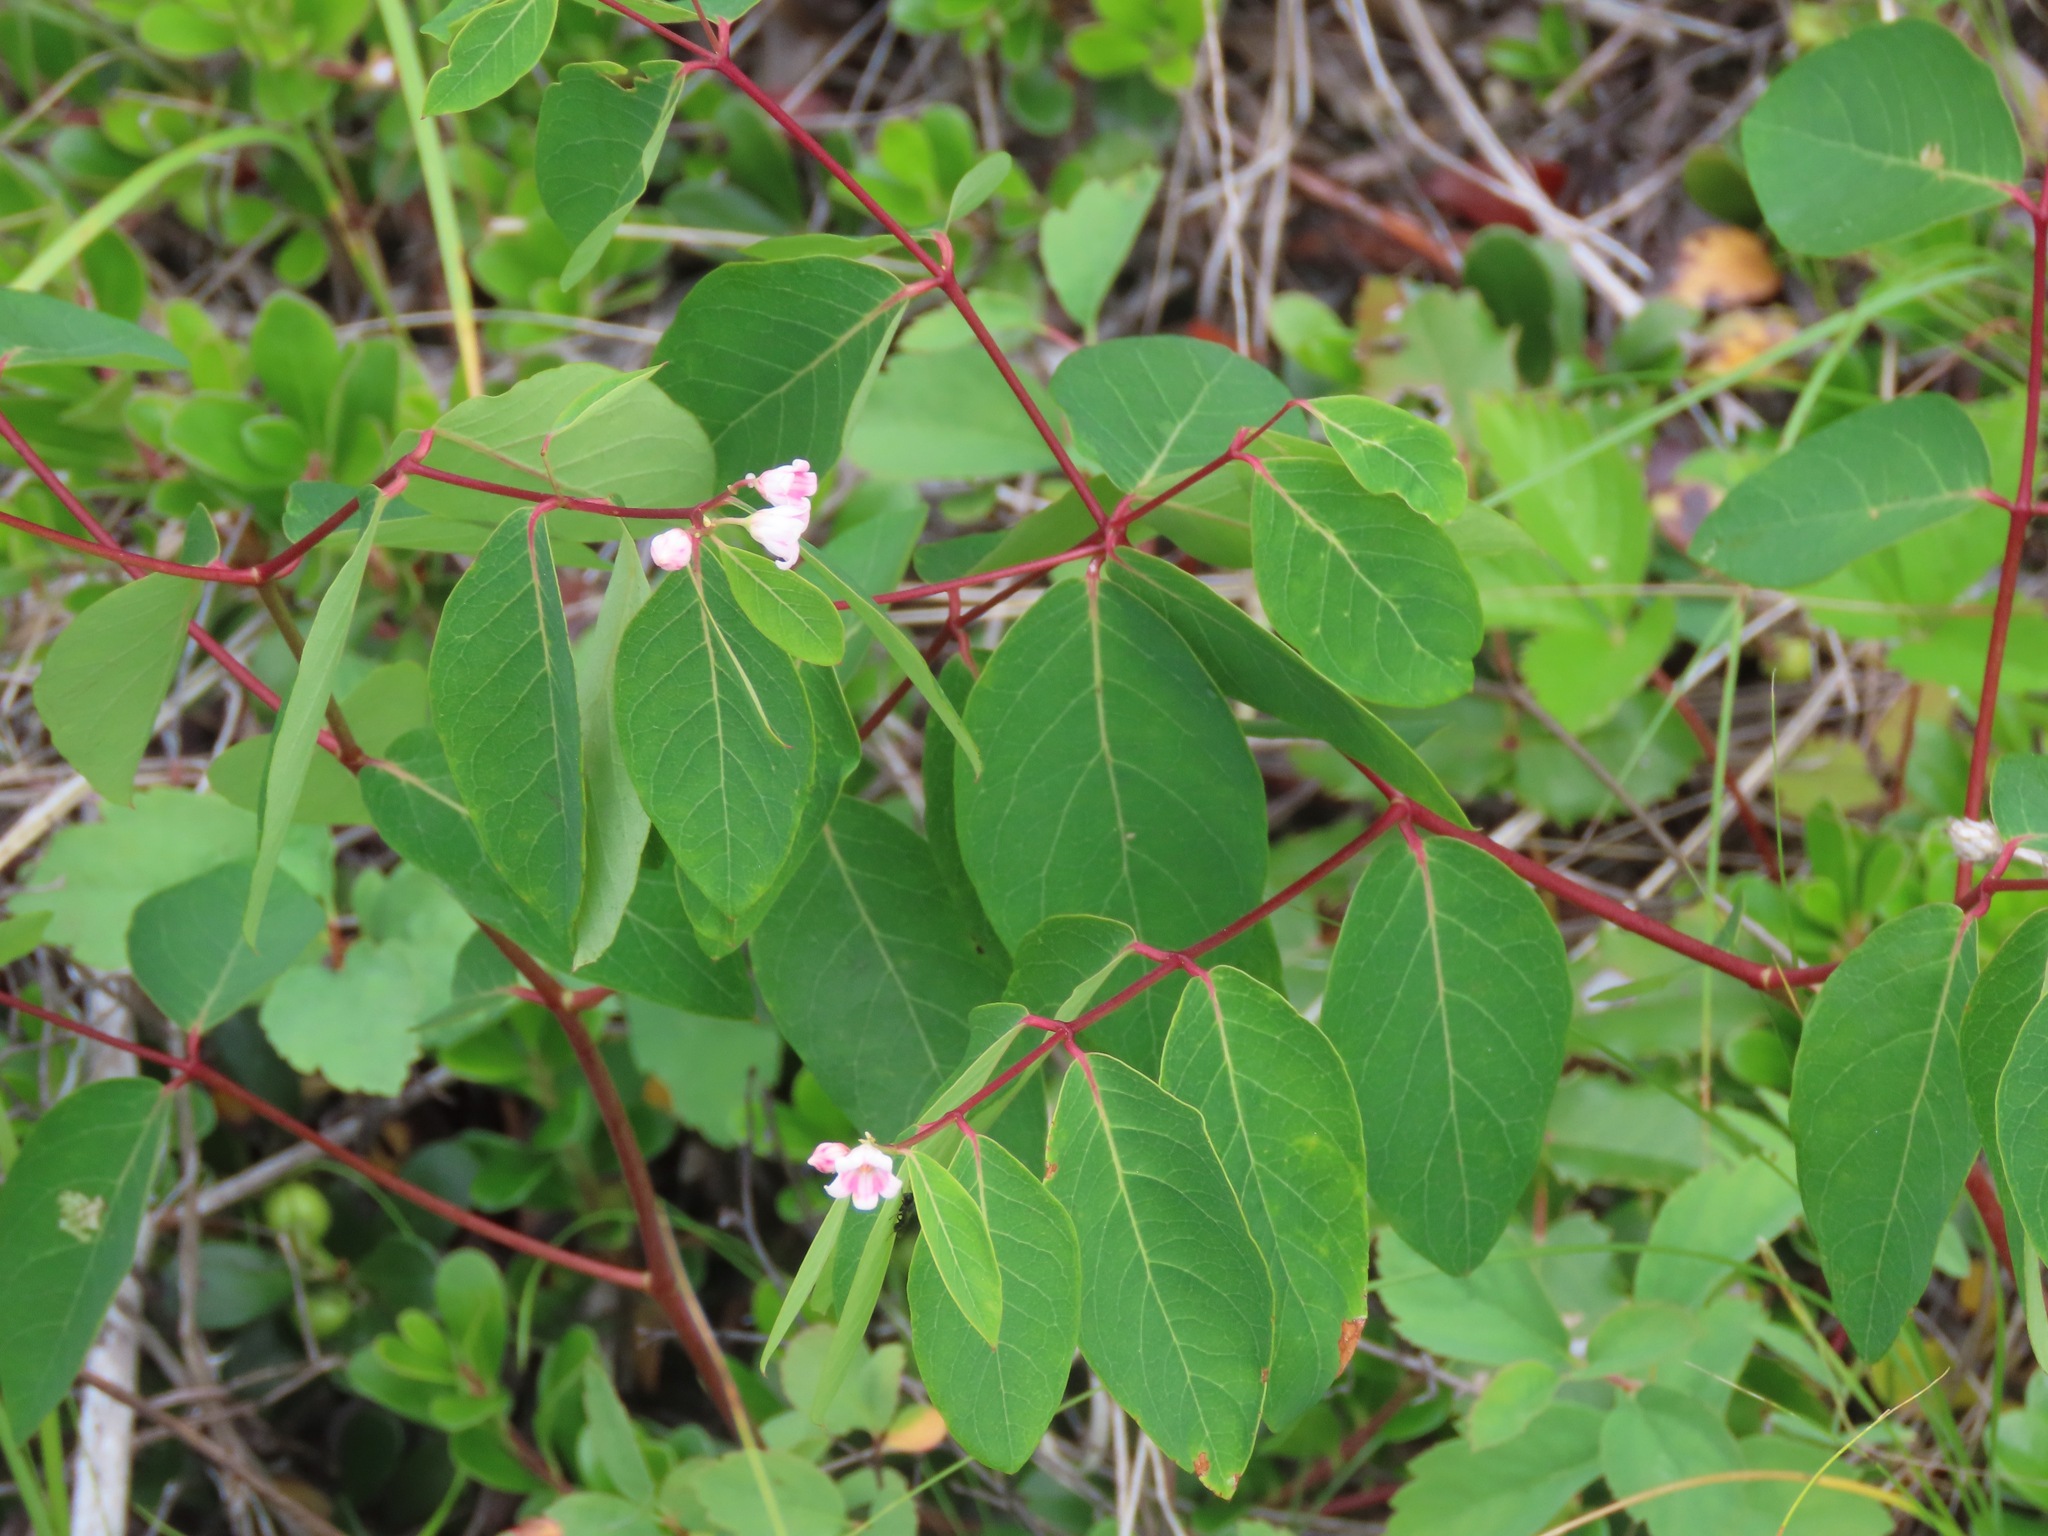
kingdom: Plantae
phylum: Tracheophyta
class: Magnoliopsida
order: Gentianales
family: Apocynaceae
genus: Apocynum
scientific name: Apocynum androsaemifolium
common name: Spreading dogbane
